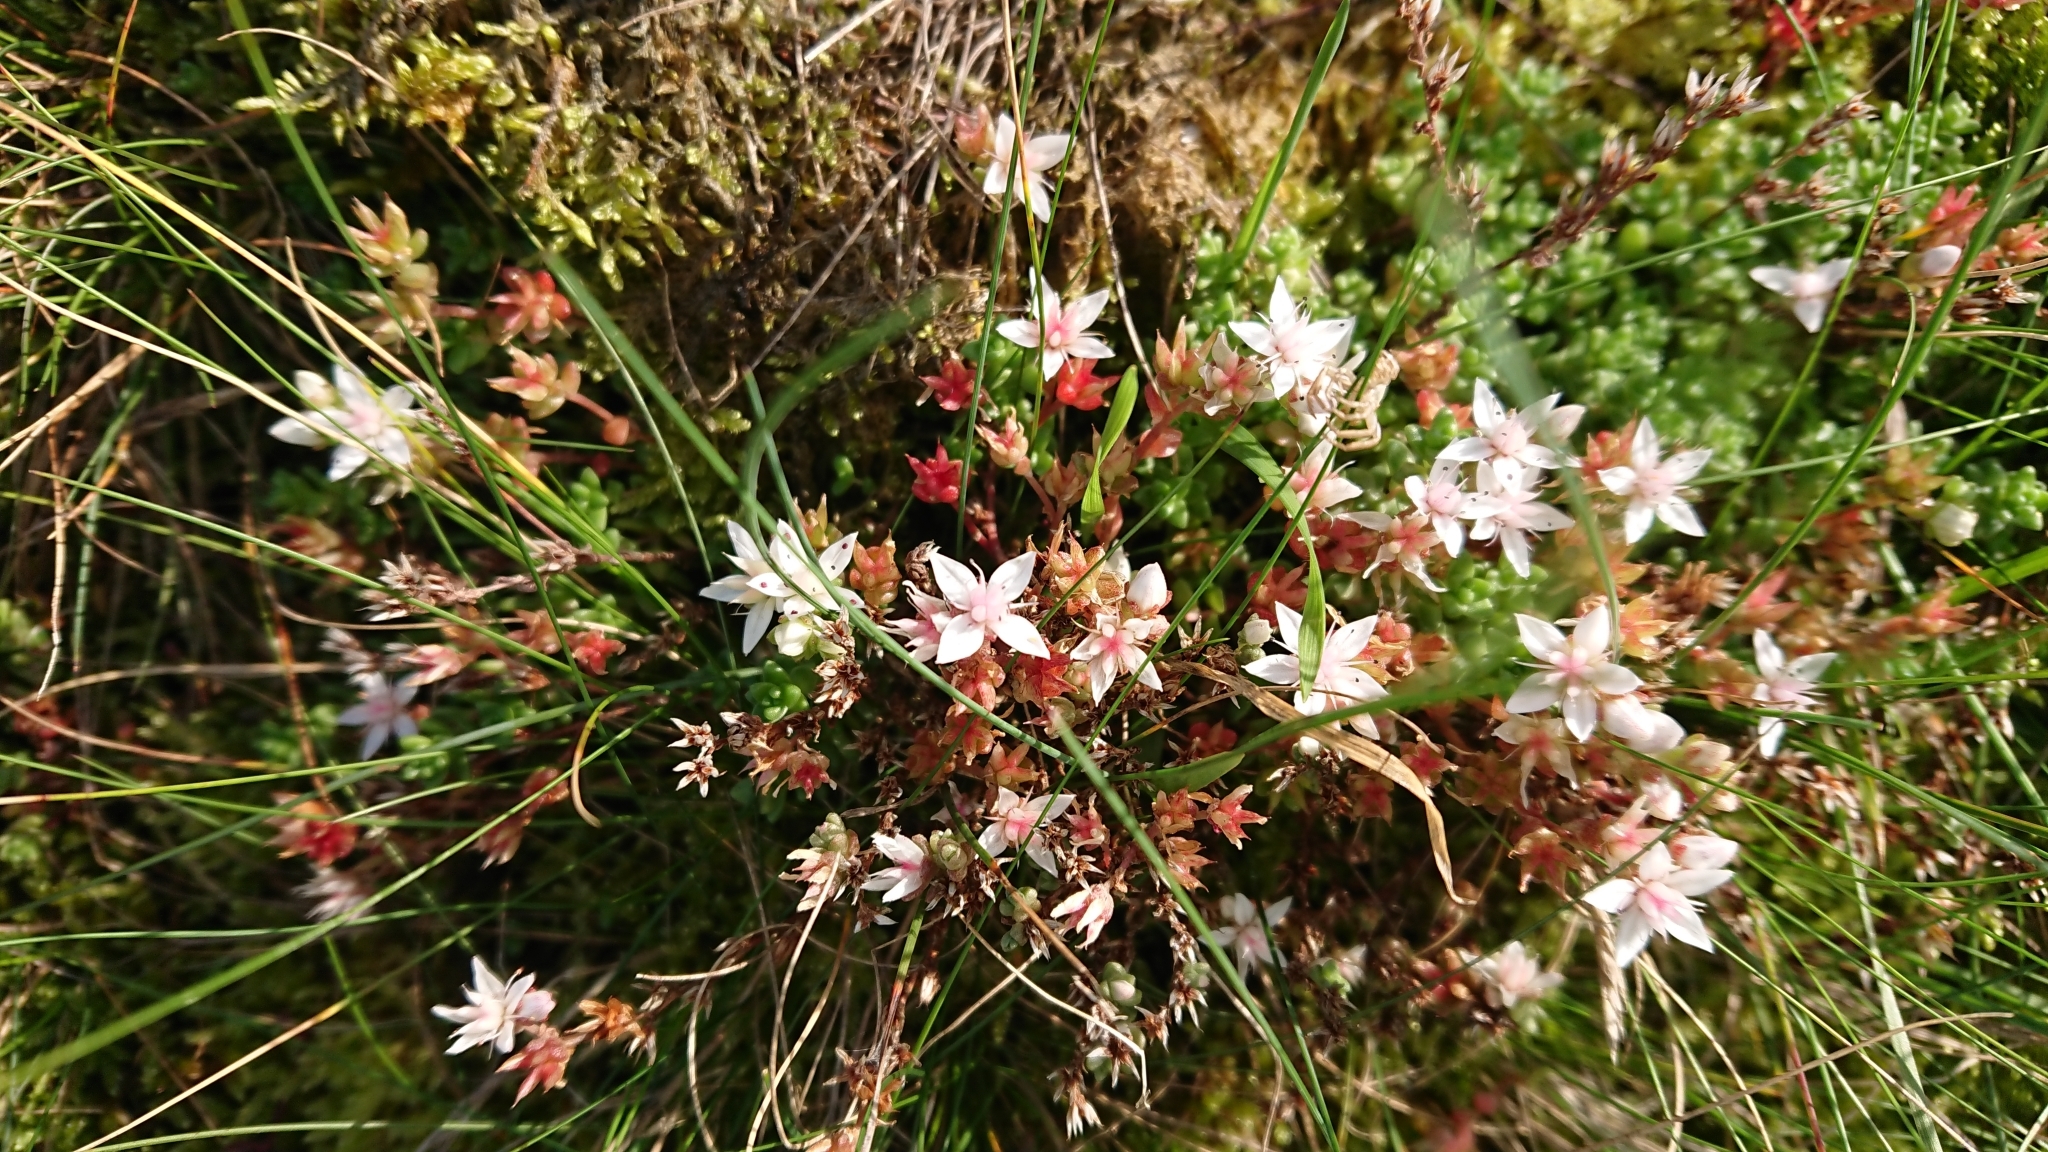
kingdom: Plantae
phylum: Tracheophyta
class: Magnoliopsida
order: Saxifragales
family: Crassulaceae
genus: Sedum
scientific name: Sedum anglicum
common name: English stonecrop
